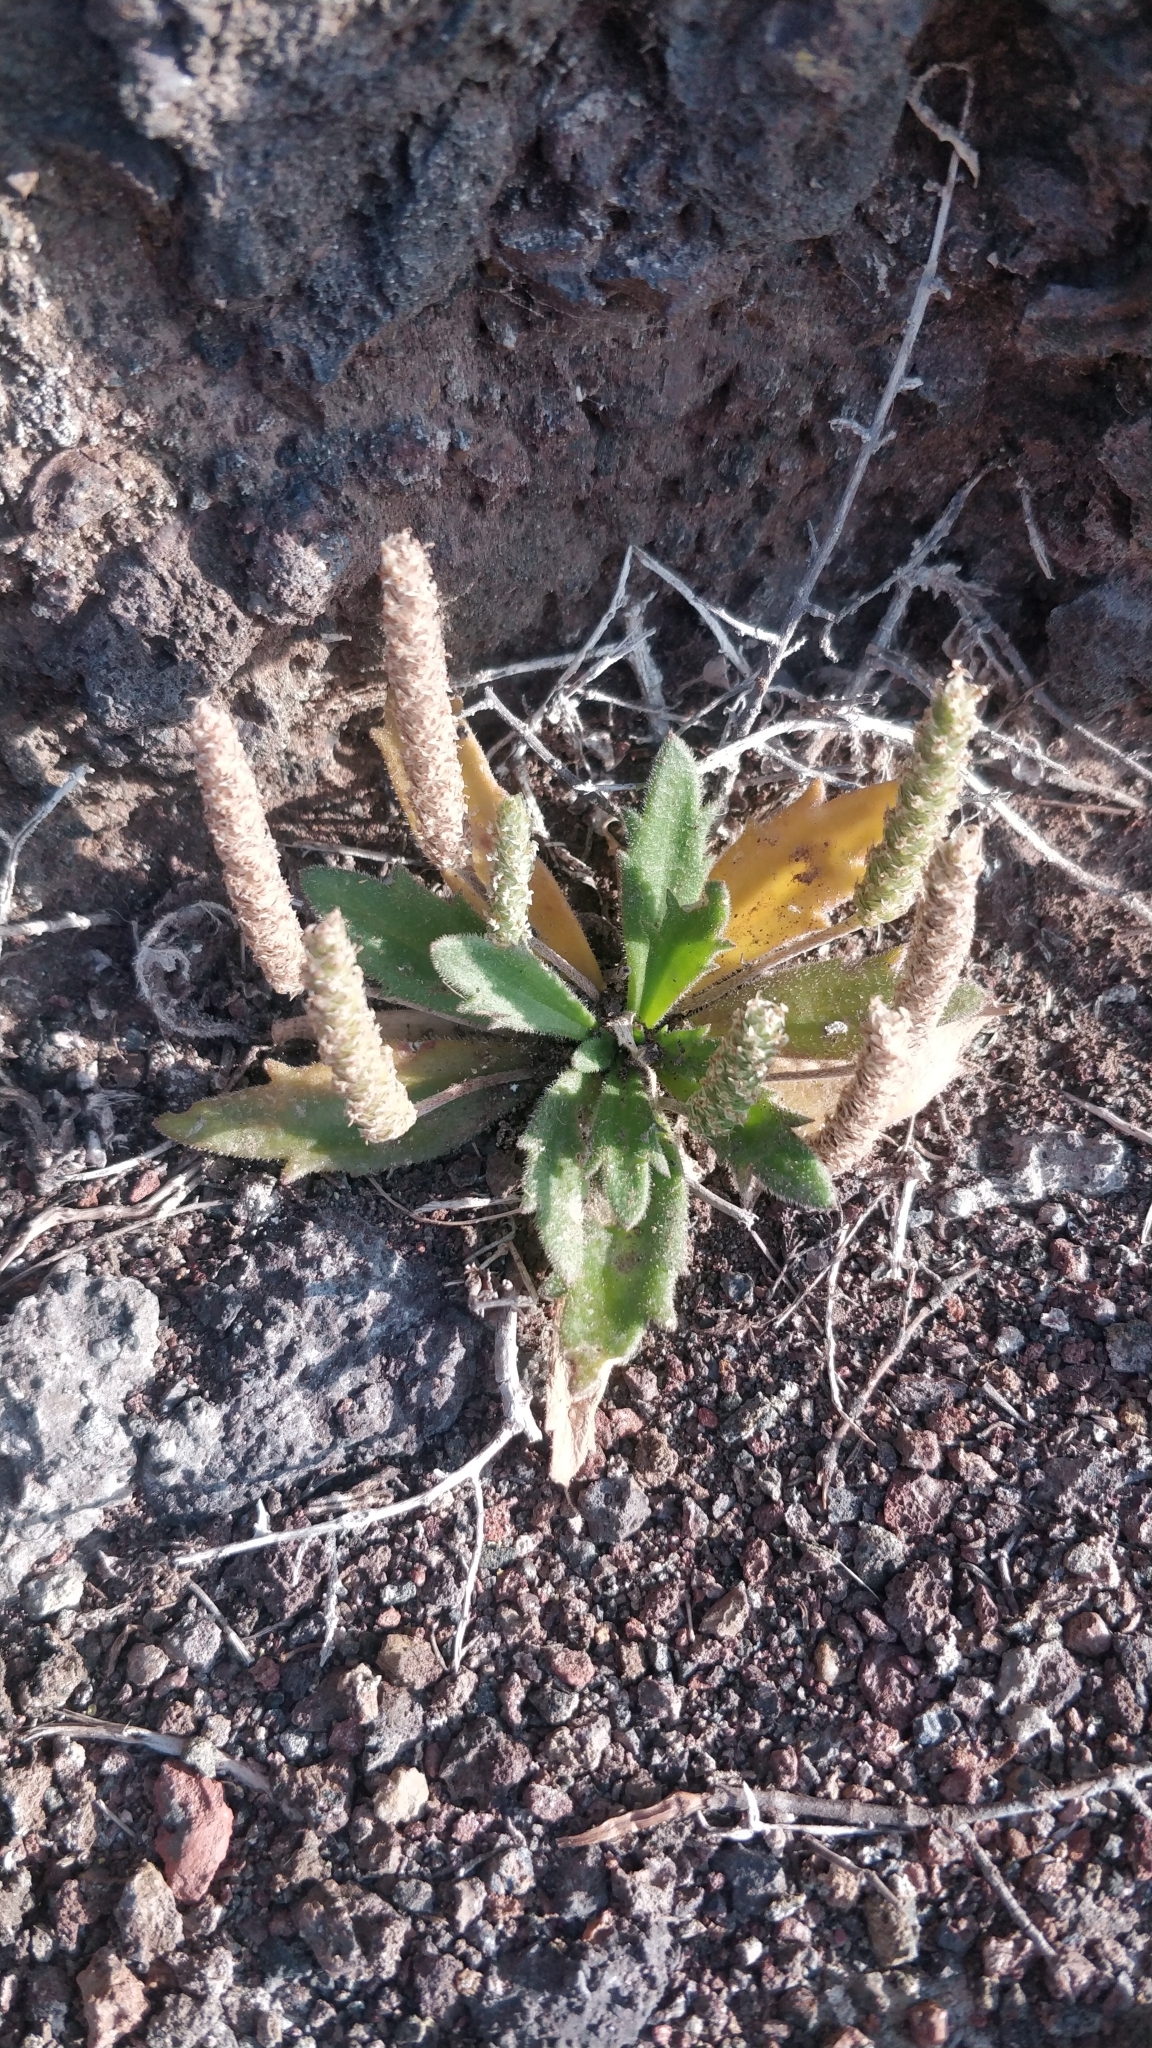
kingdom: Plantae
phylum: Tracheophyta
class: Magnoliopsida
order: Lamiales
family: Plantaginaceae
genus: Plantago
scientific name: Plantago coronopus
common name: Buck's-horn plantain
